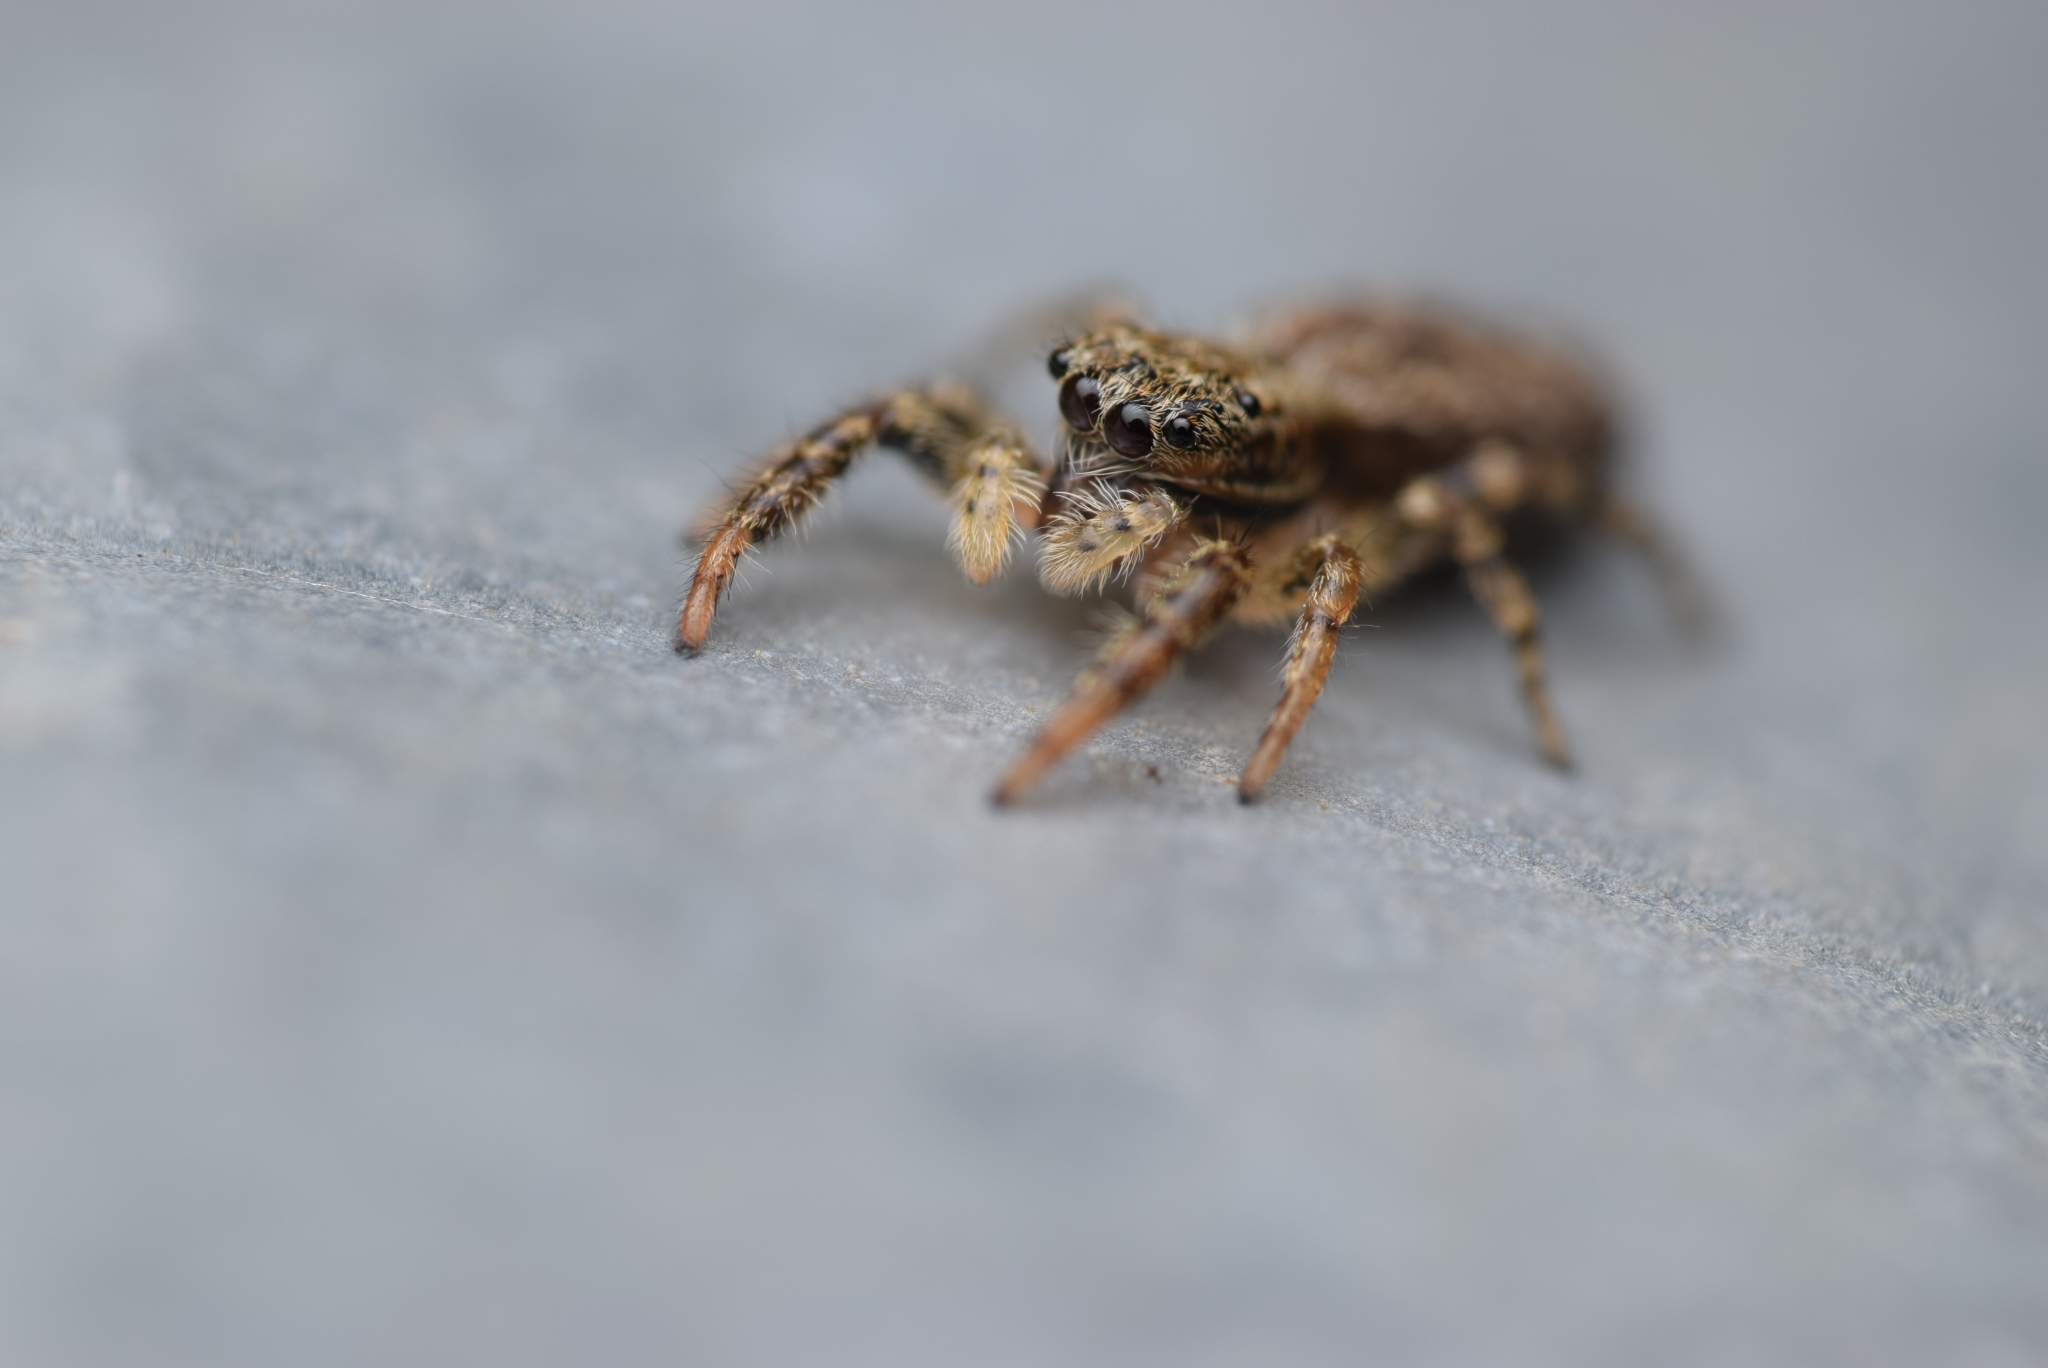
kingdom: Animalia
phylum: Arthropoda
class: Arachnida
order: Araneae
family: Salticidae
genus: Marpissa
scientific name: Marpissa muscosa
